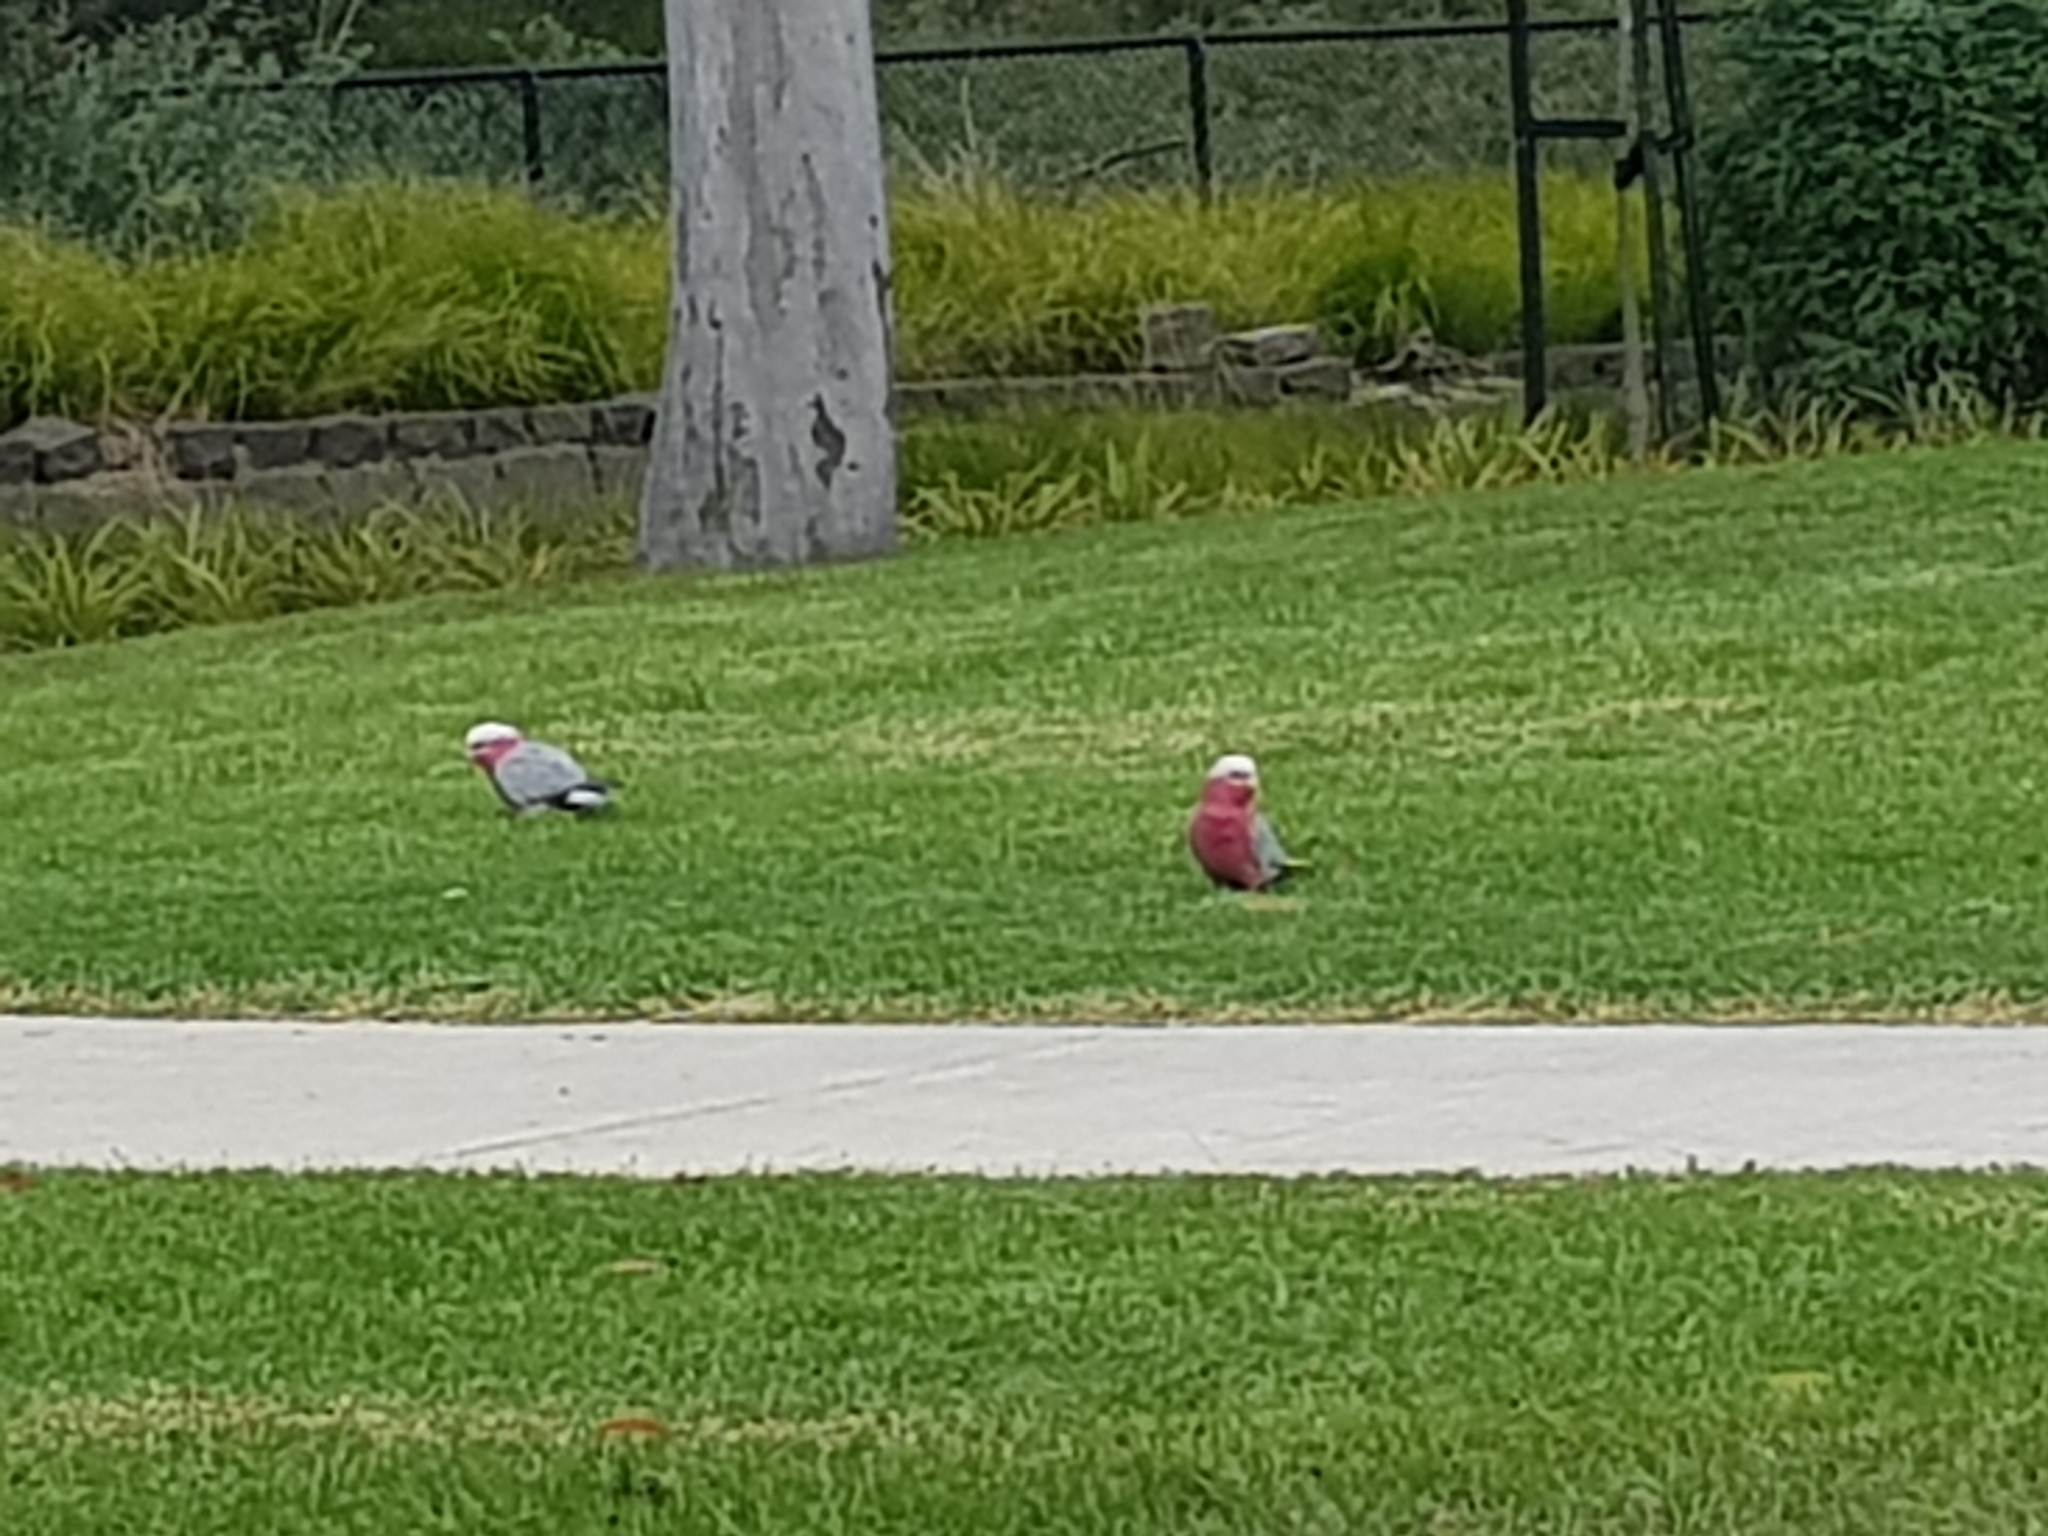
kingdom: Animalia
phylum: Chordata
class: Aves
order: Psittaciformes
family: Psittacidae
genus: Eolophus
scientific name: Eolophus roseicapilla
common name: Galah
